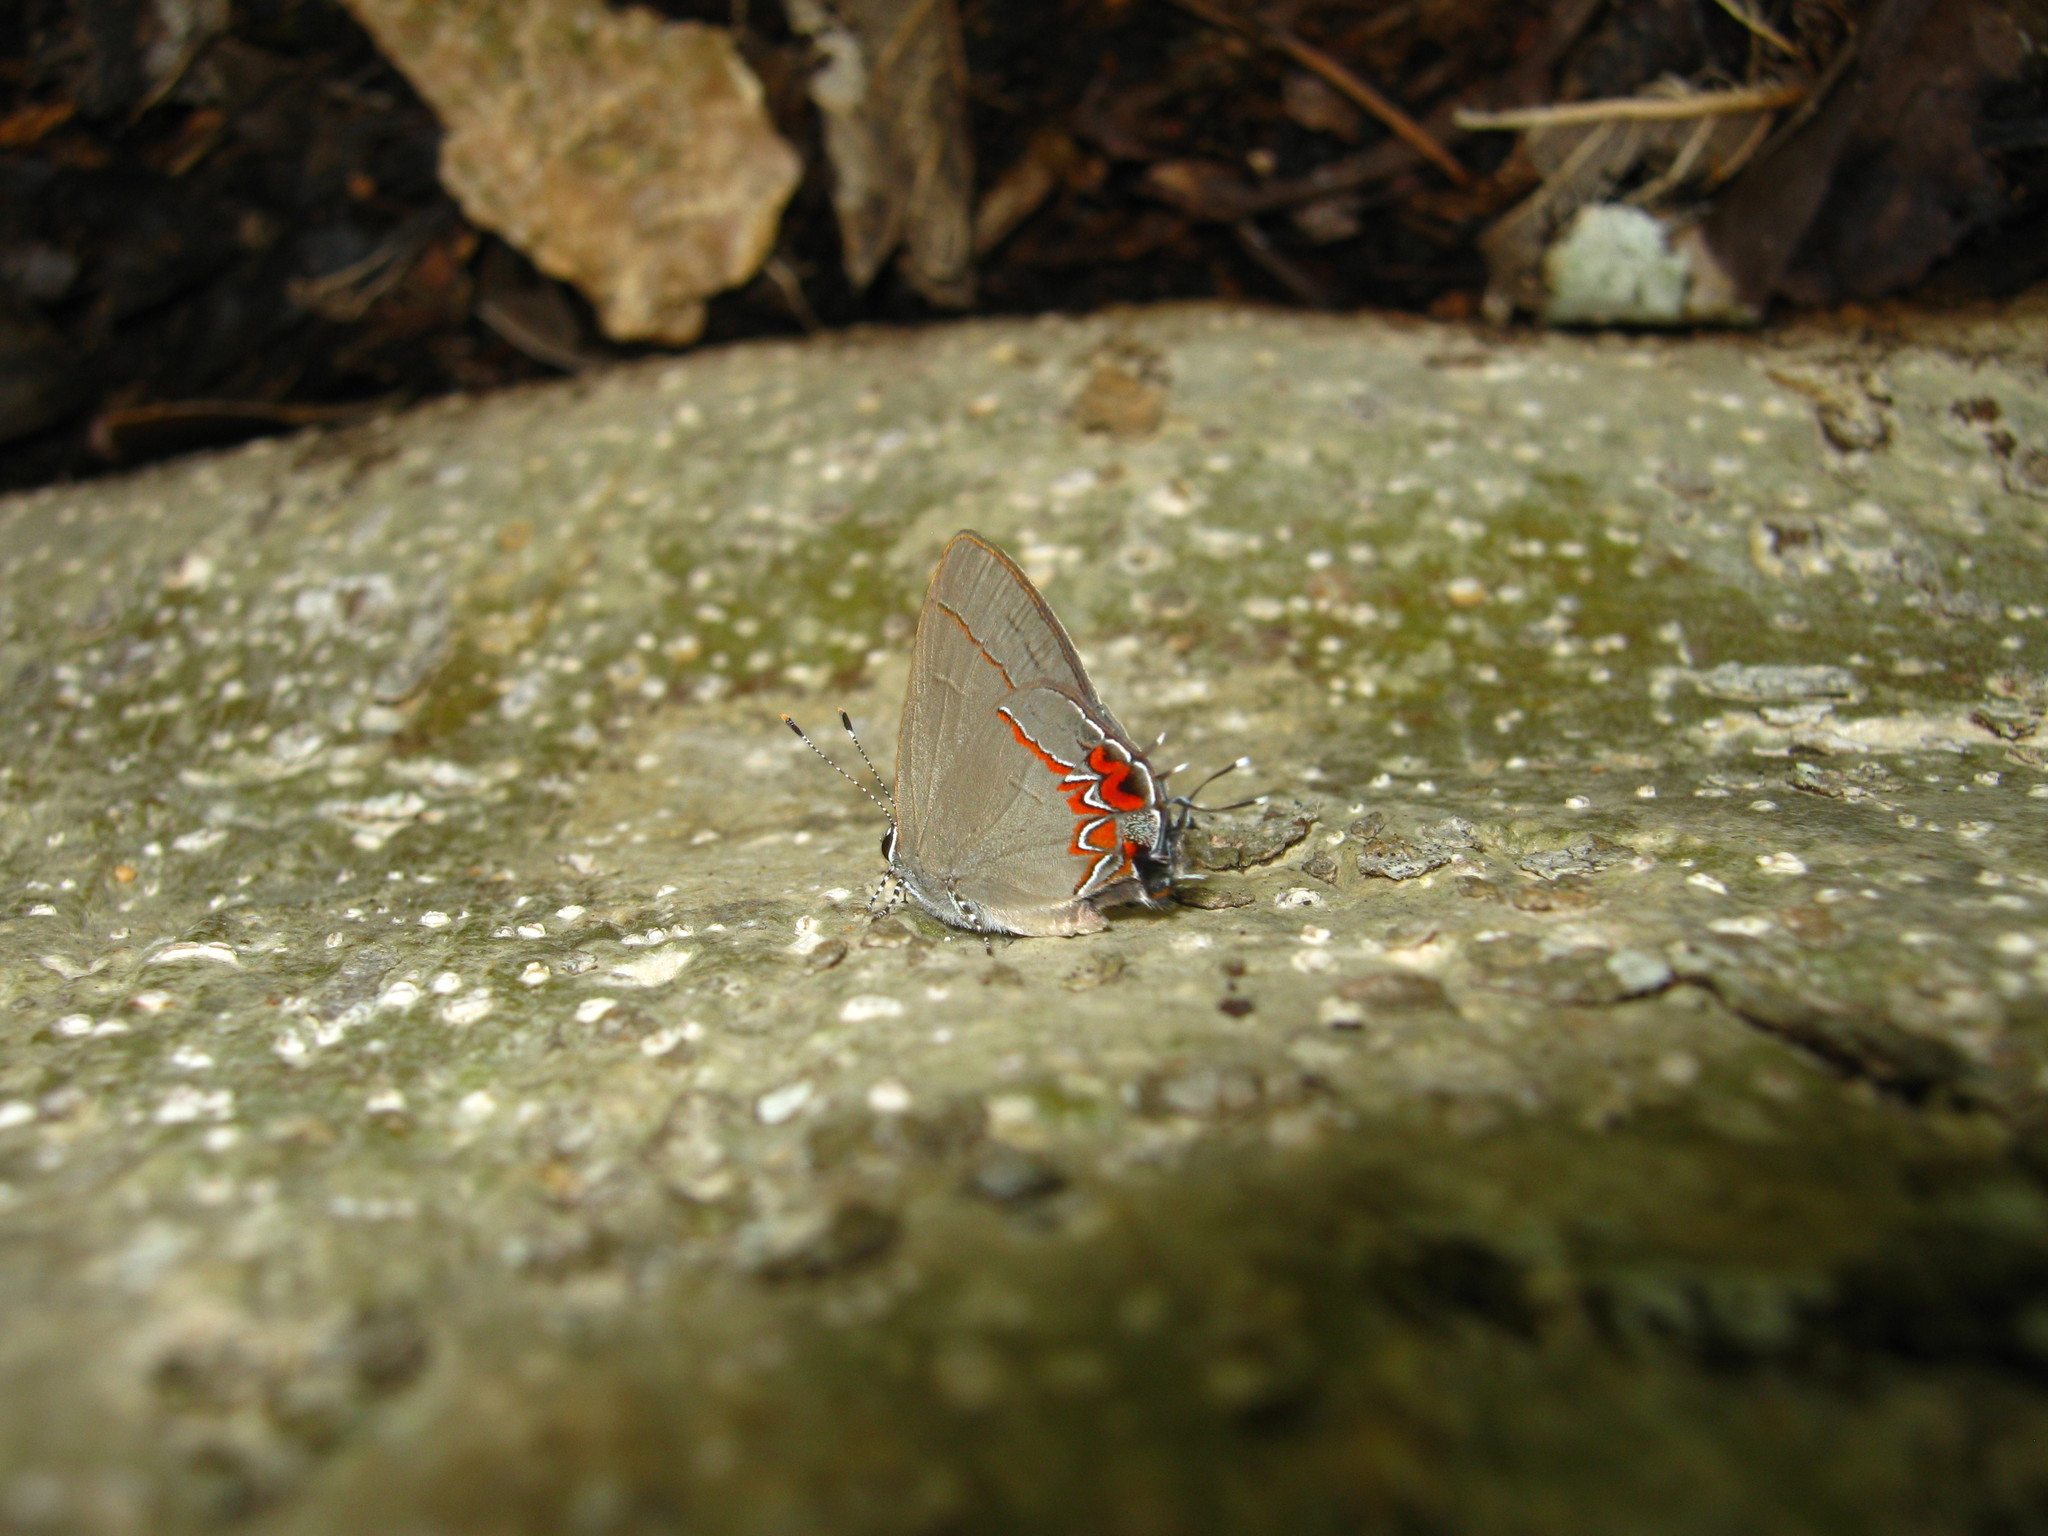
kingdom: Animalia
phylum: Arthropoda
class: Insecta
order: Lepidoptera
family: Lycaenidae
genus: Calycopis
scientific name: Calycopis isobeon
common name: Dusky-blue groundstreak
